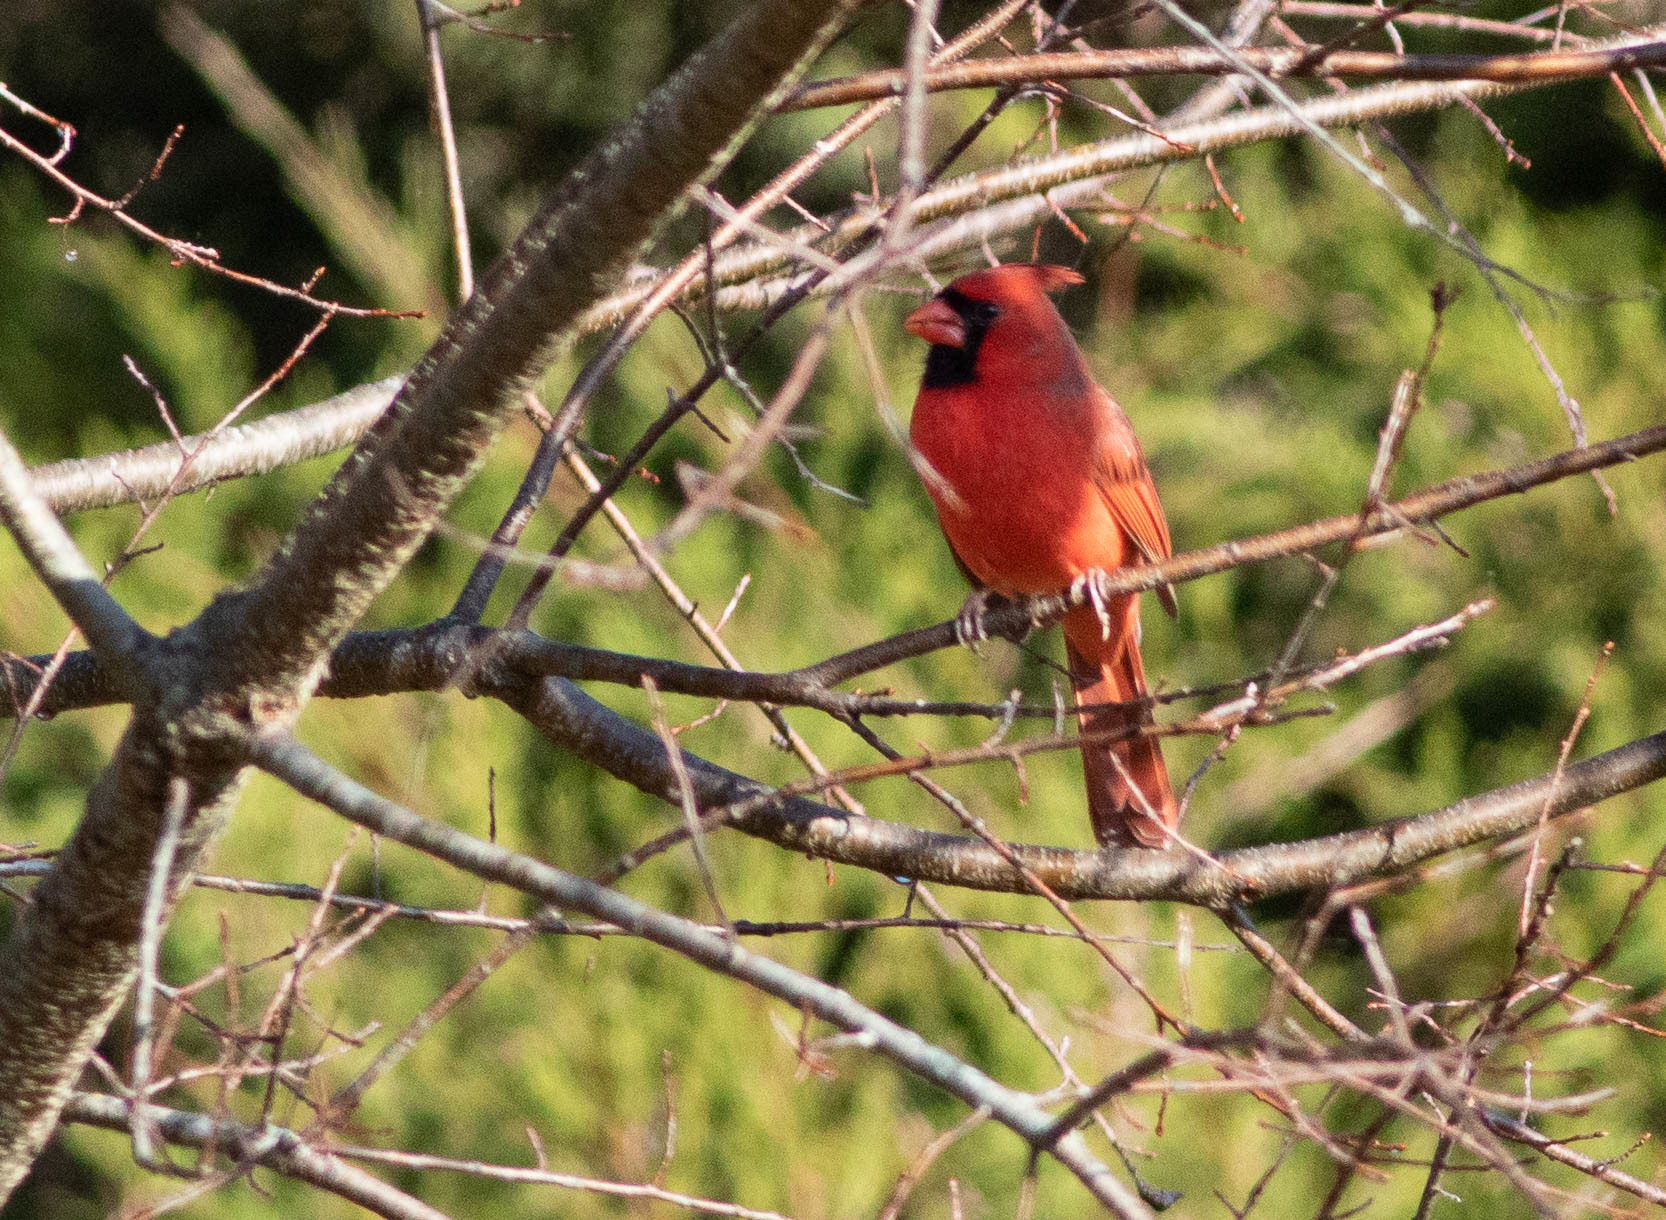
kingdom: Animalia
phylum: Chordata
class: Aves
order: Passeriformes
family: Cardinalidae
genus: Cardinalis
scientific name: Cardinalis cardinalis
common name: Northern cardinal
